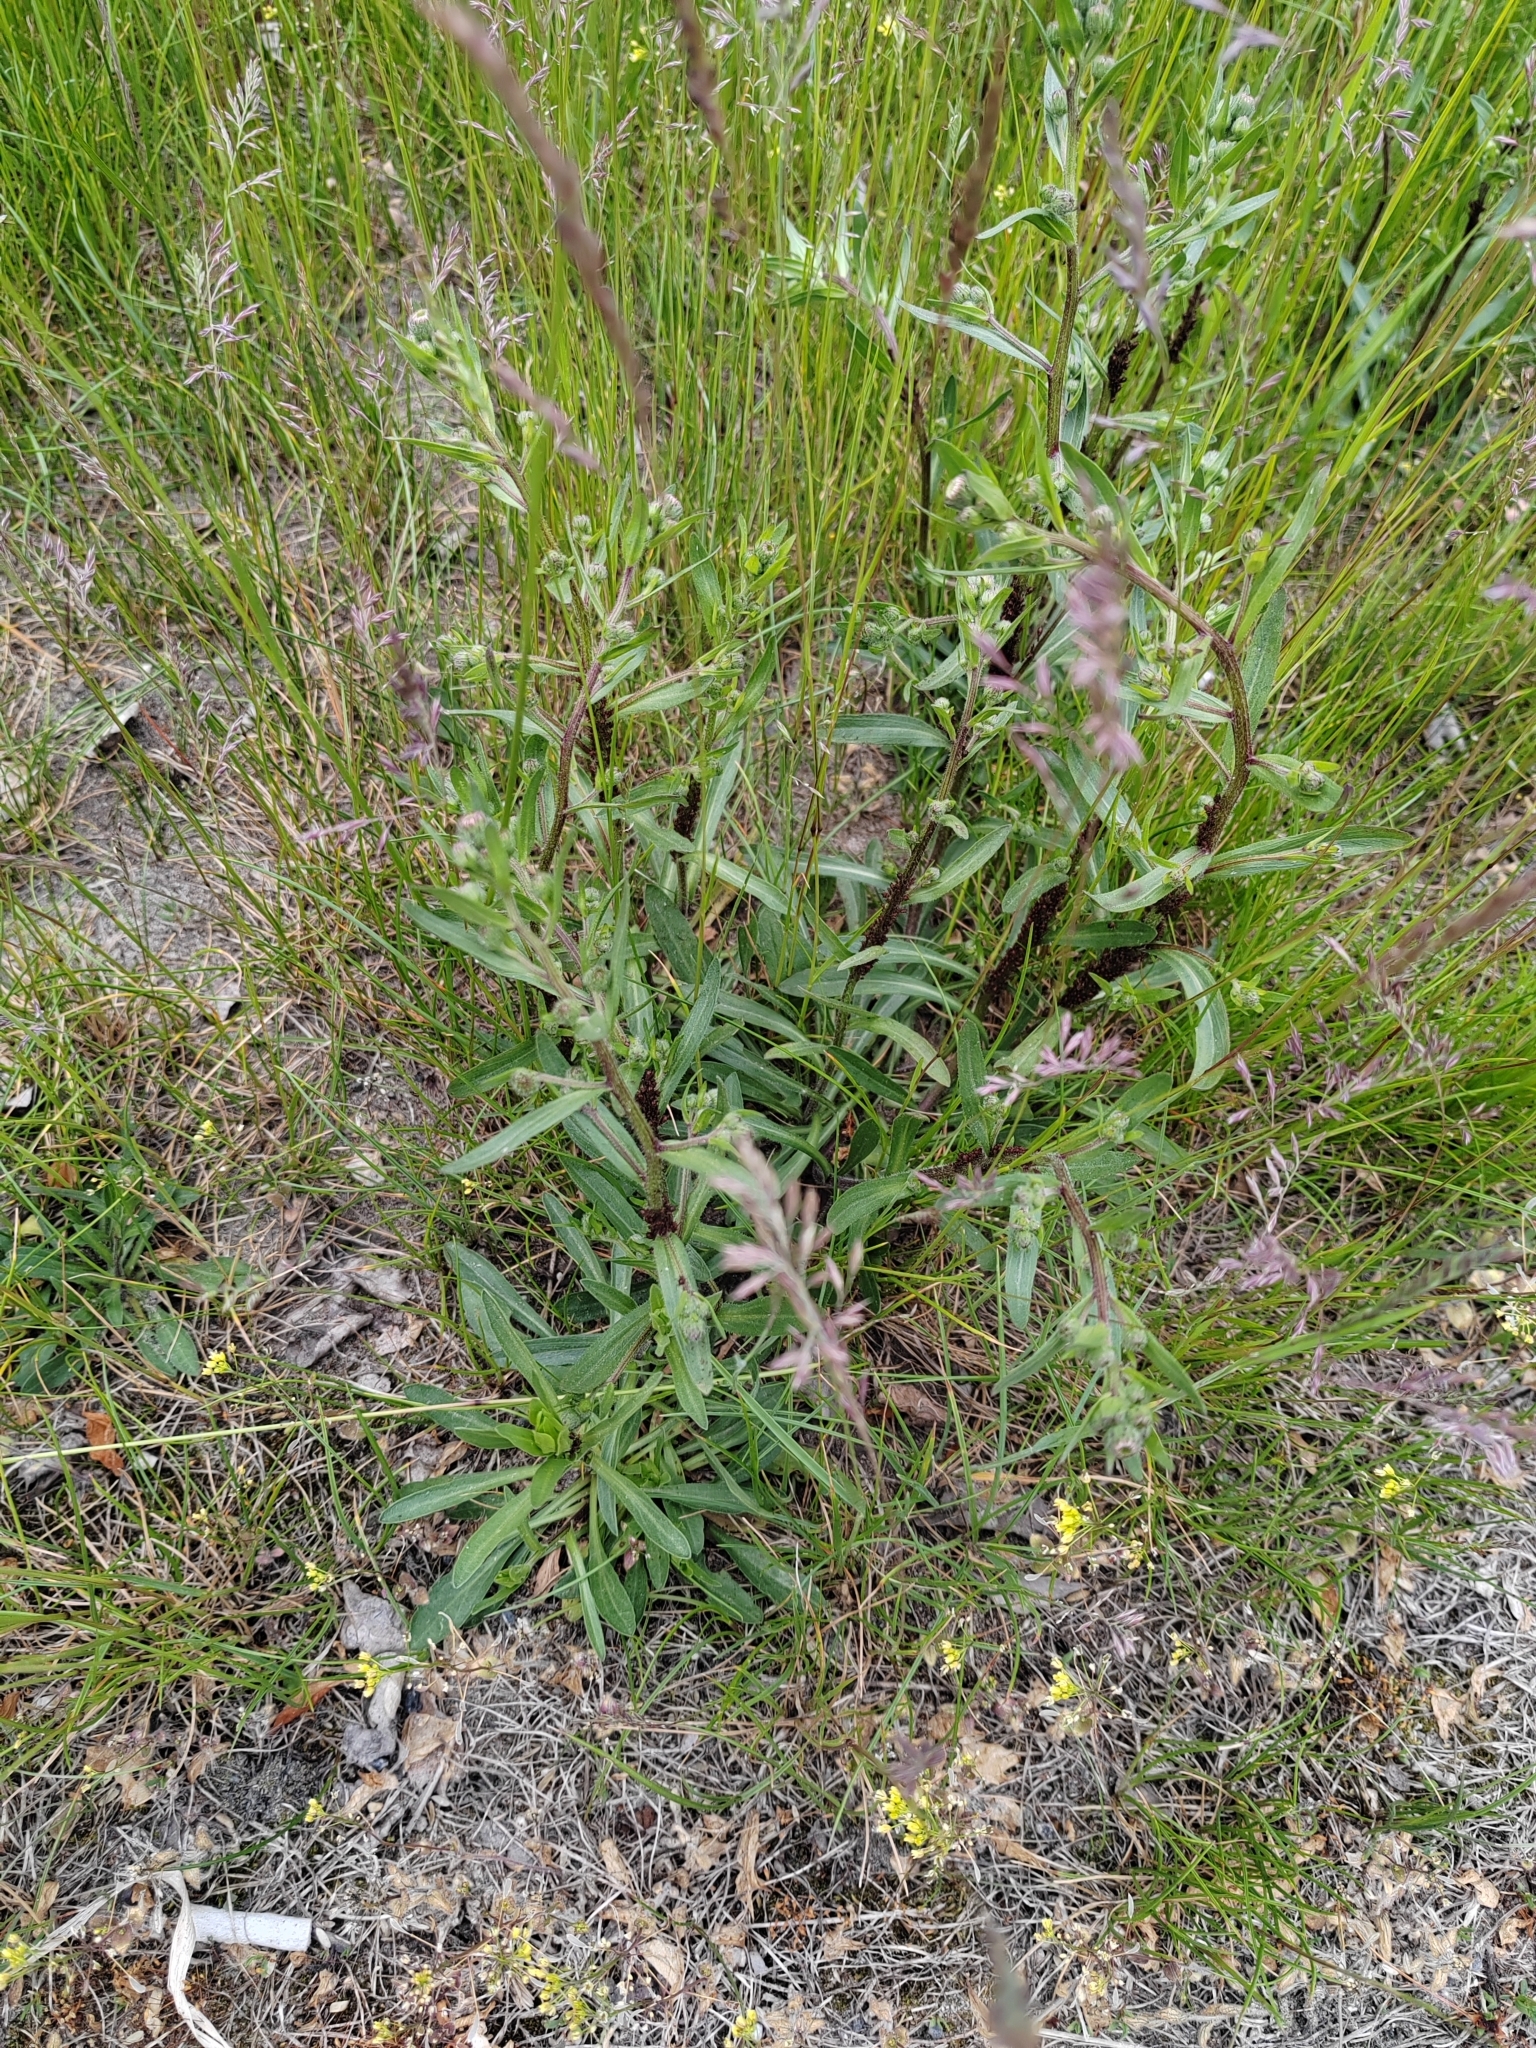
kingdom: Plantae
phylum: Tracheophyta
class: Magnoliopsida
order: Asterales
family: Asteraceae
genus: Erigeron
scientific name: Erigeron acris
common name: Blue fleabane
